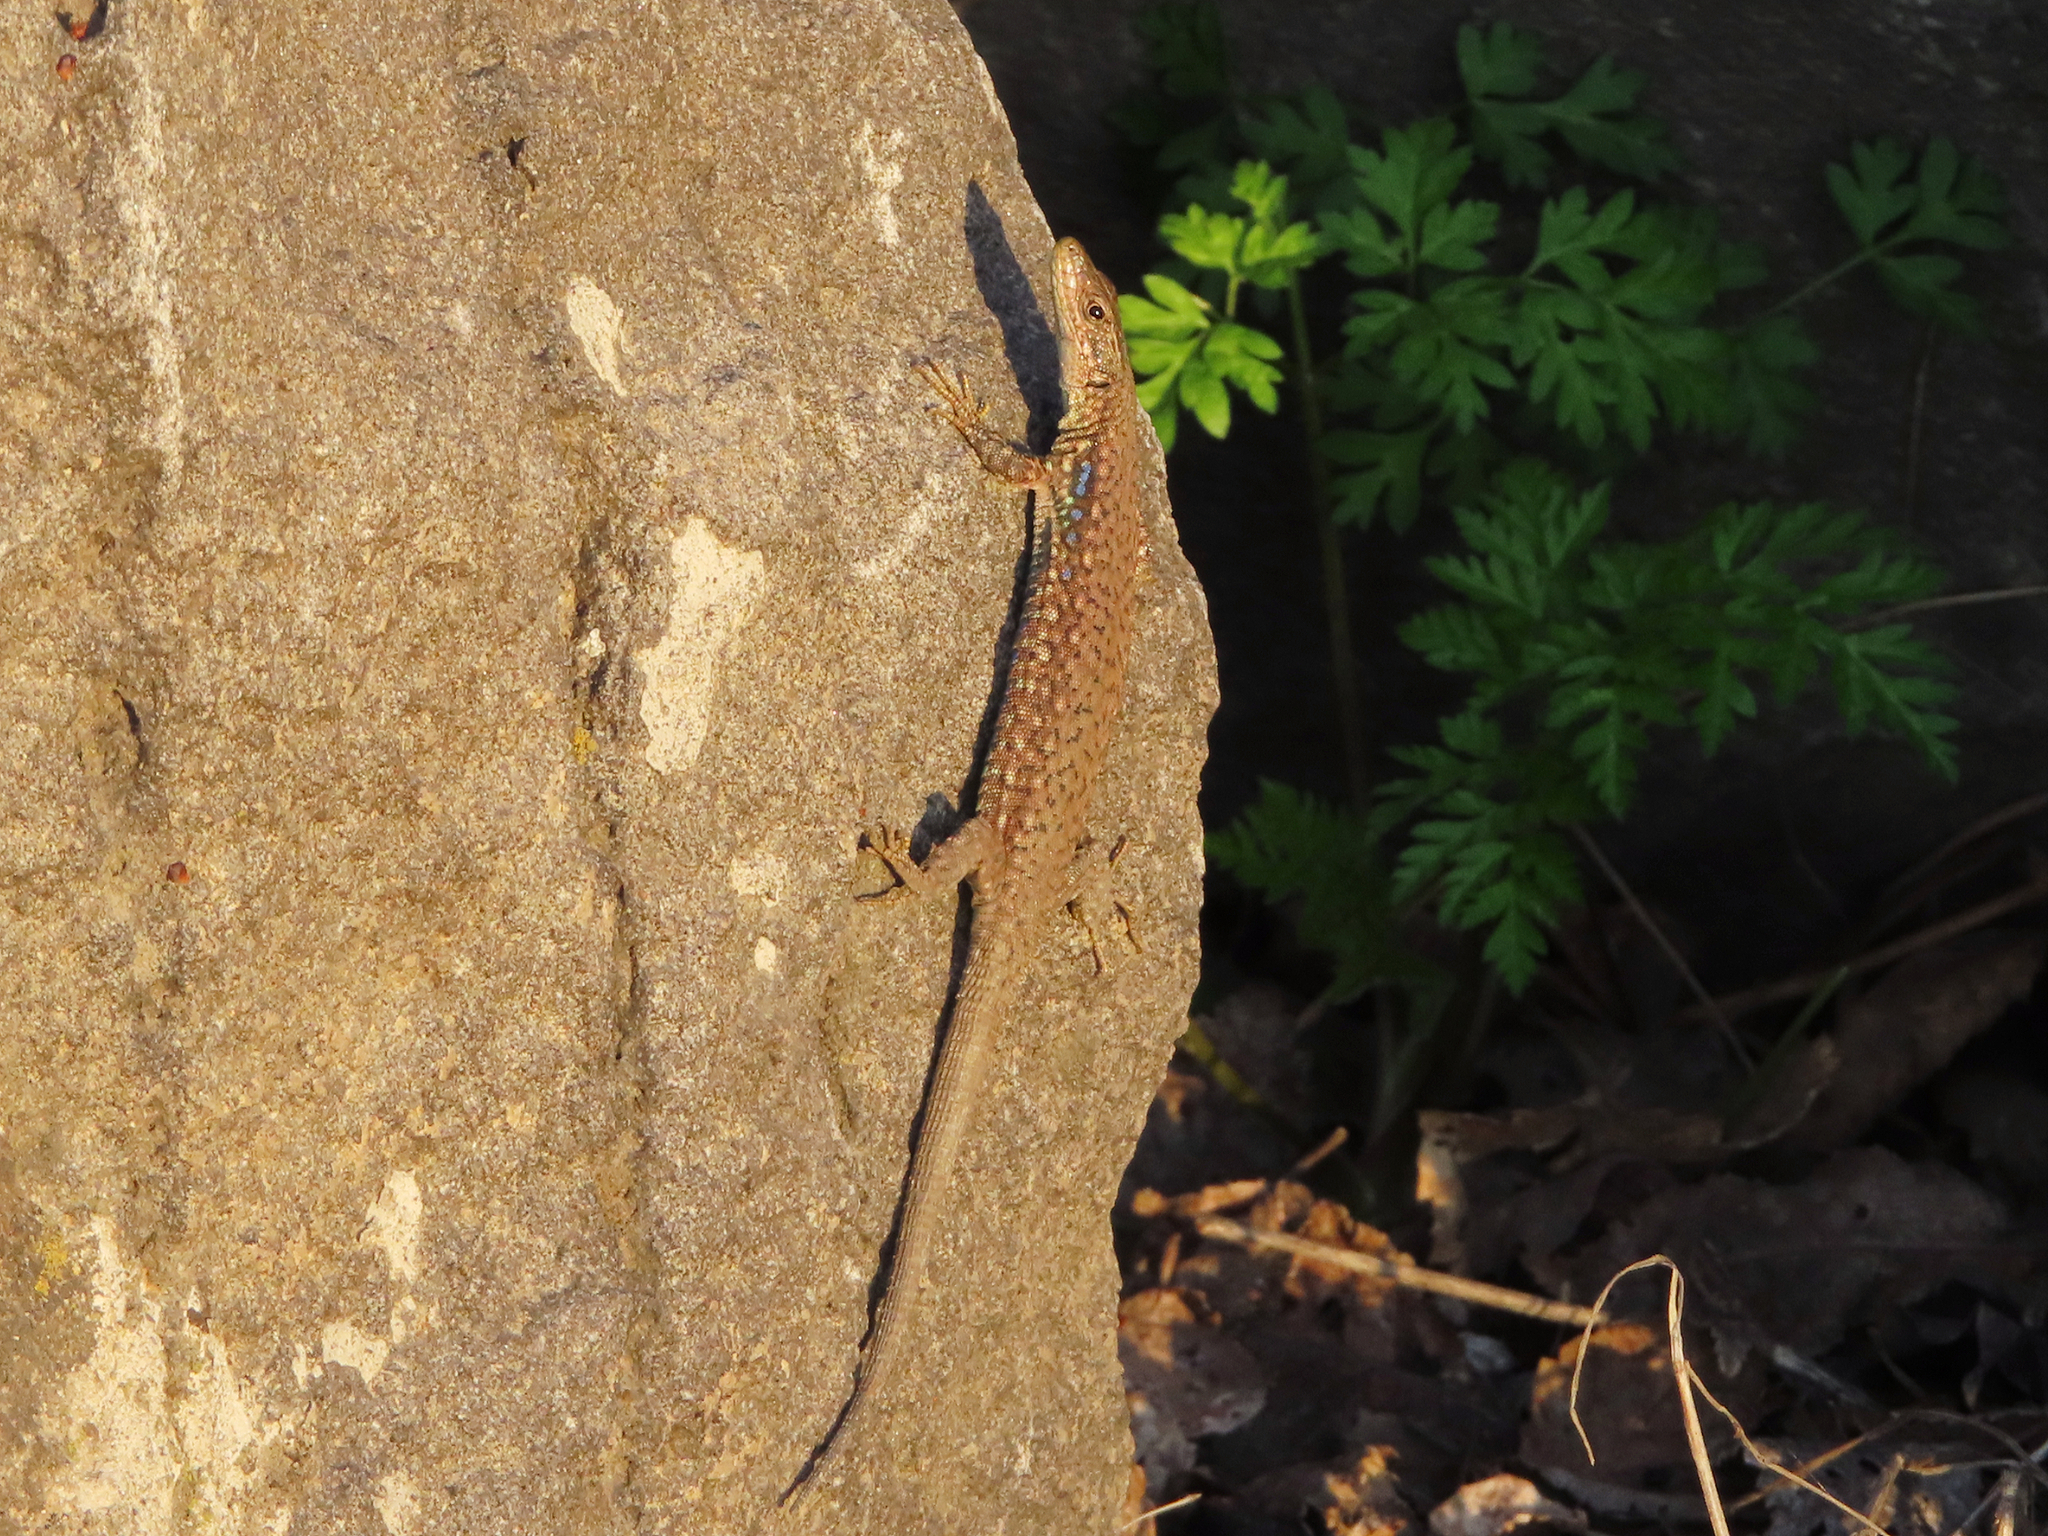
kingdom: Animalia
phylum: Chordata
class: Squamata
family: Lacertidae
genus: Darevskia
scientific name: Darevskia
